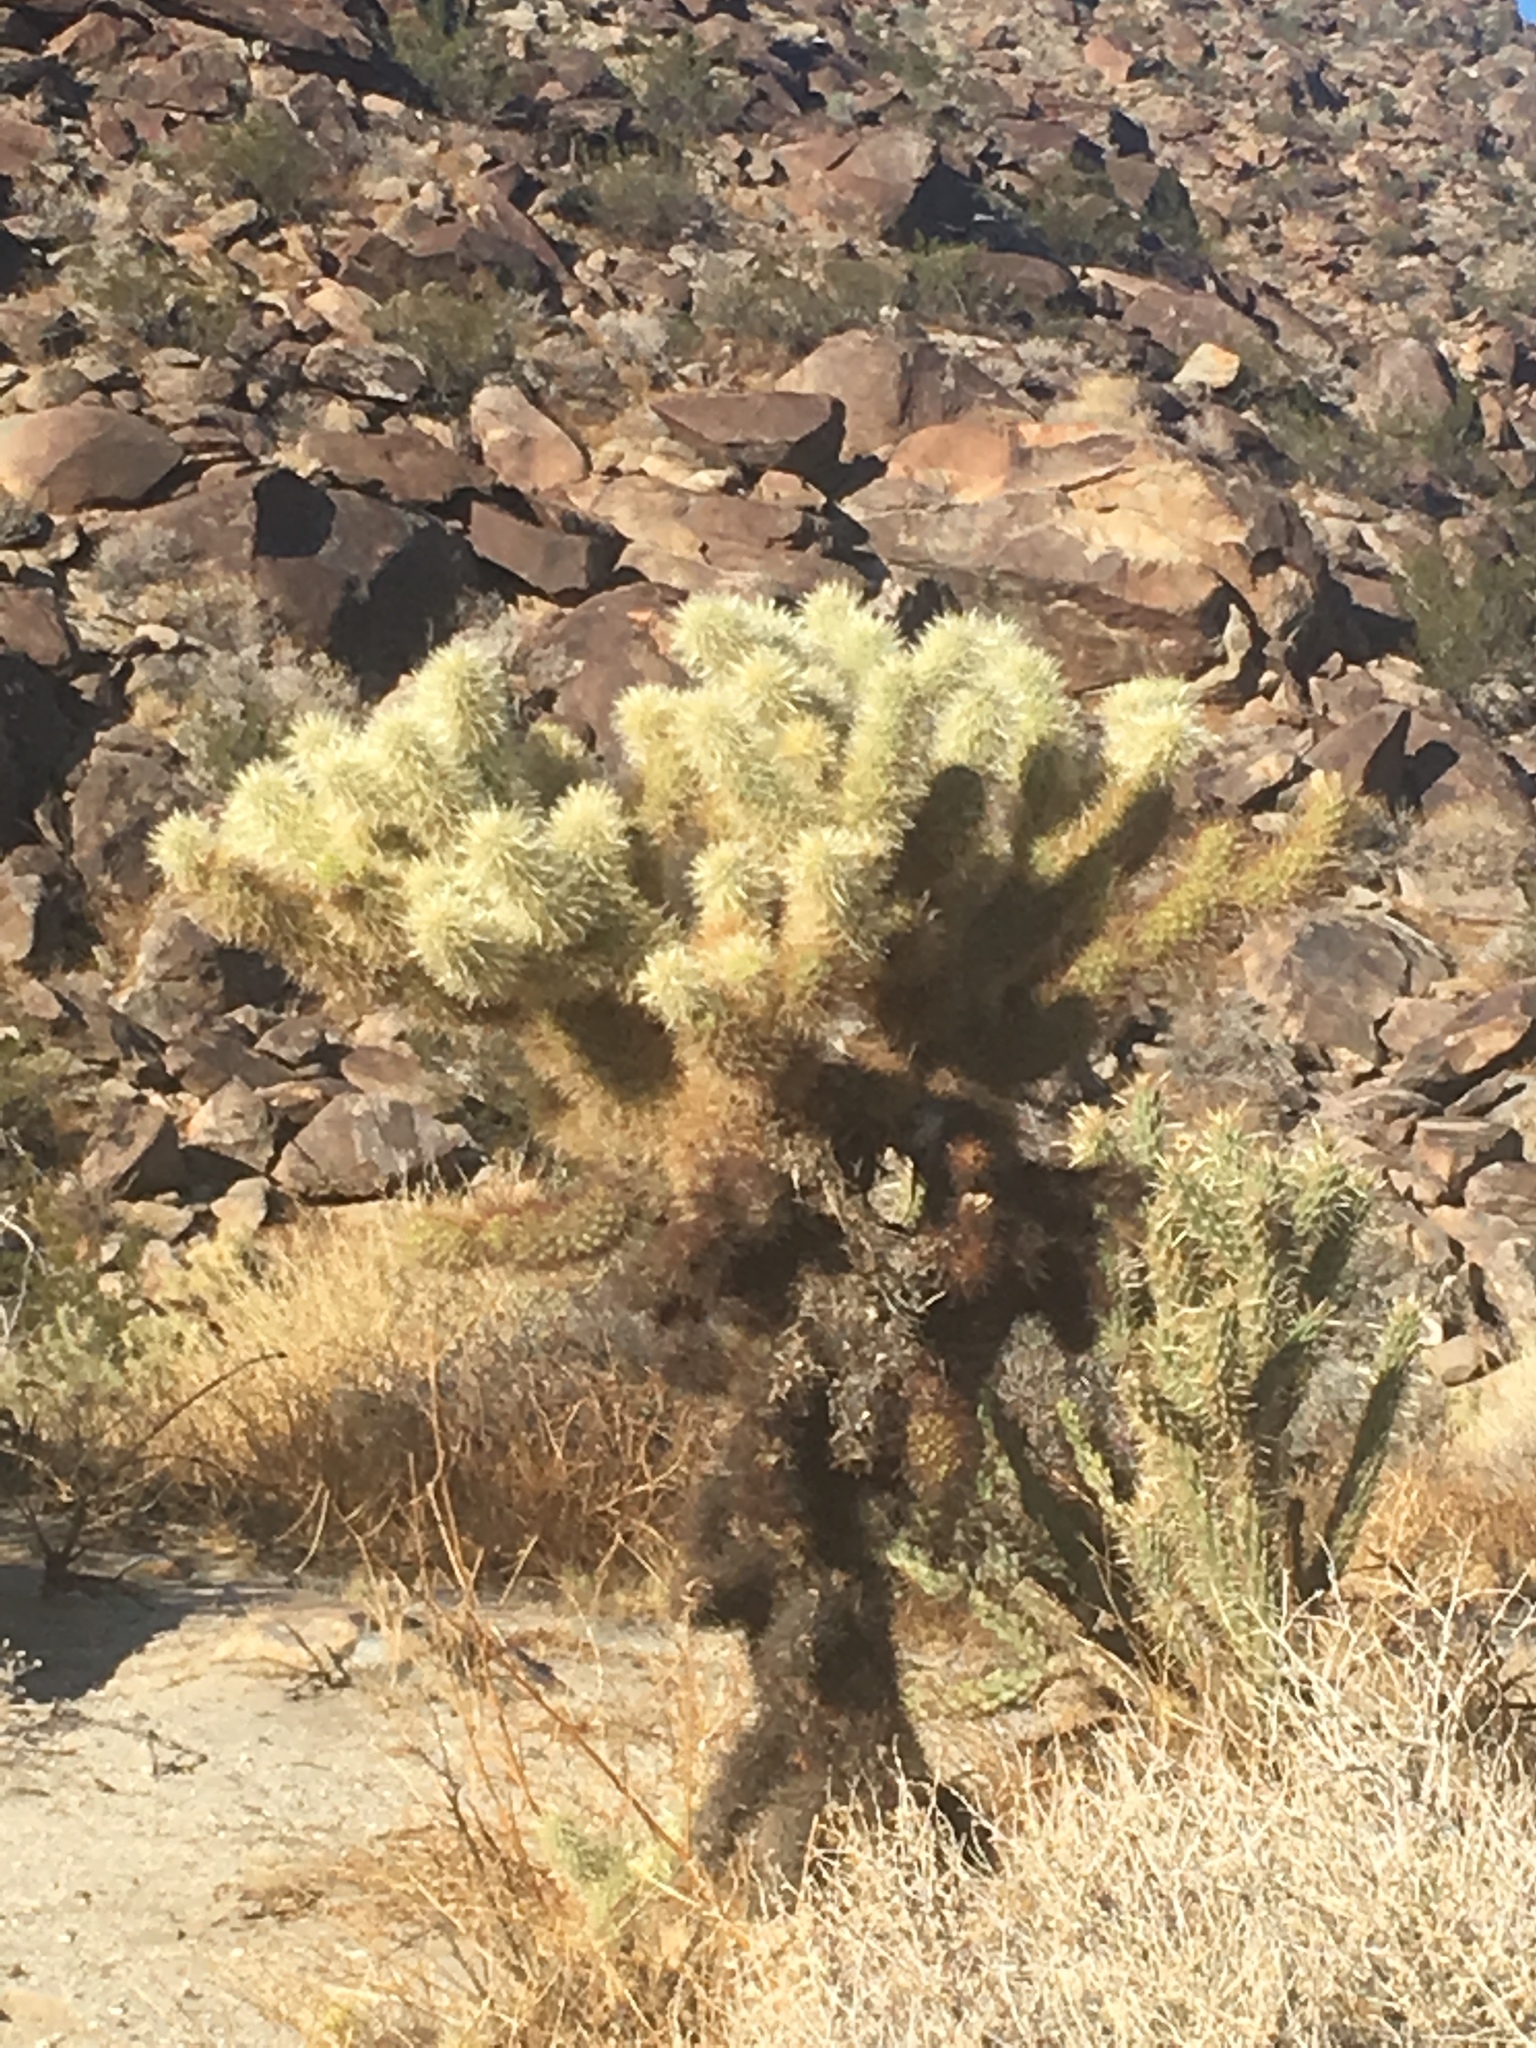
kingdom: Plantae
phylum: Tracheophyta
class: Magnoliopsida
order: Caryophyllales
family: Cactaceae
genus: Cylindropuntia
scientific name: Cylindropuntia fosbergii
